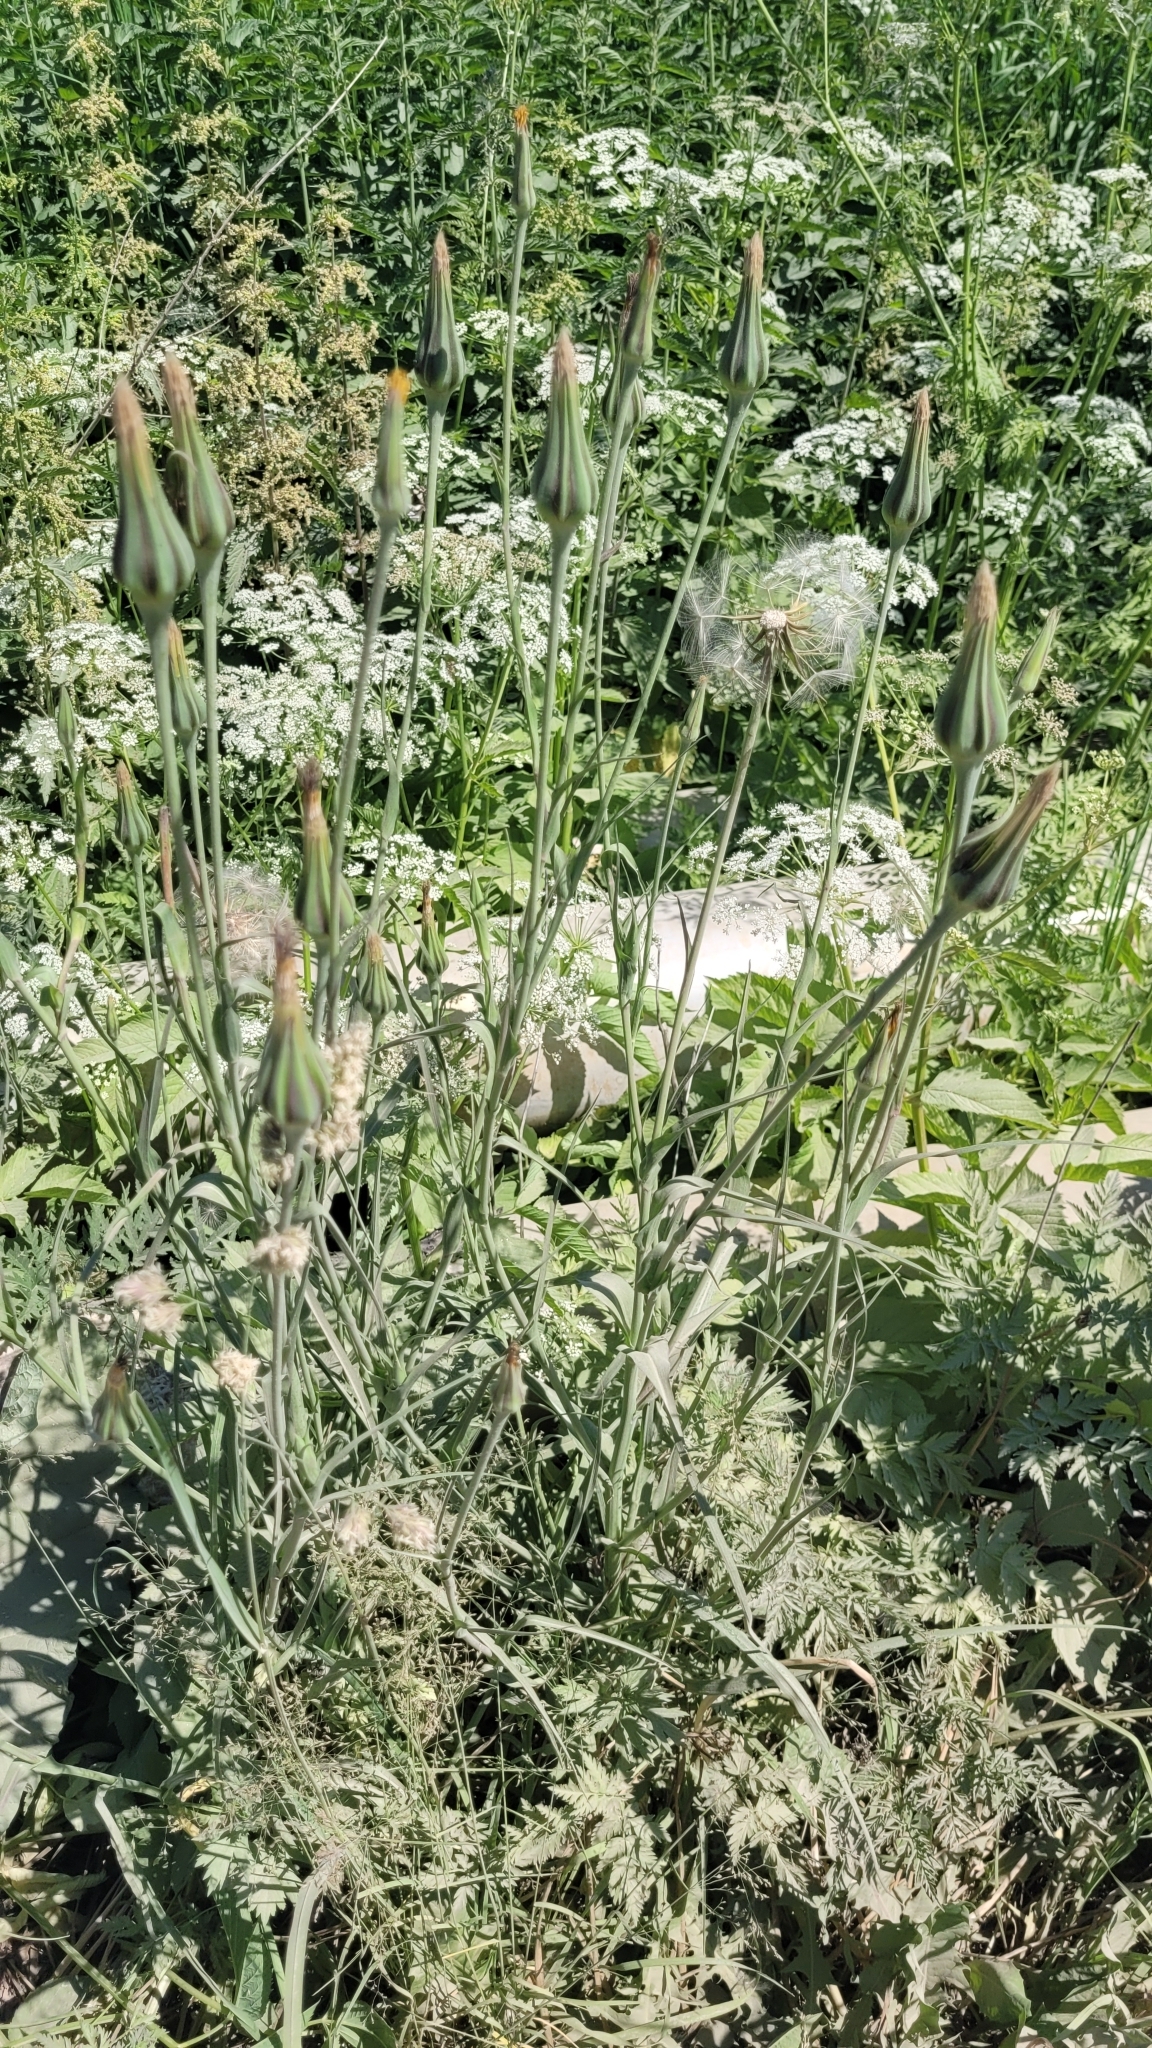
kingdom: Plantae
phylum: Tracheophyta
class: Magnoliopsida
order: Asterales
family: Asteraceae
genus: Tragopogon
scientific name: Tragopogon pratensis
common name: Goat's-beard
